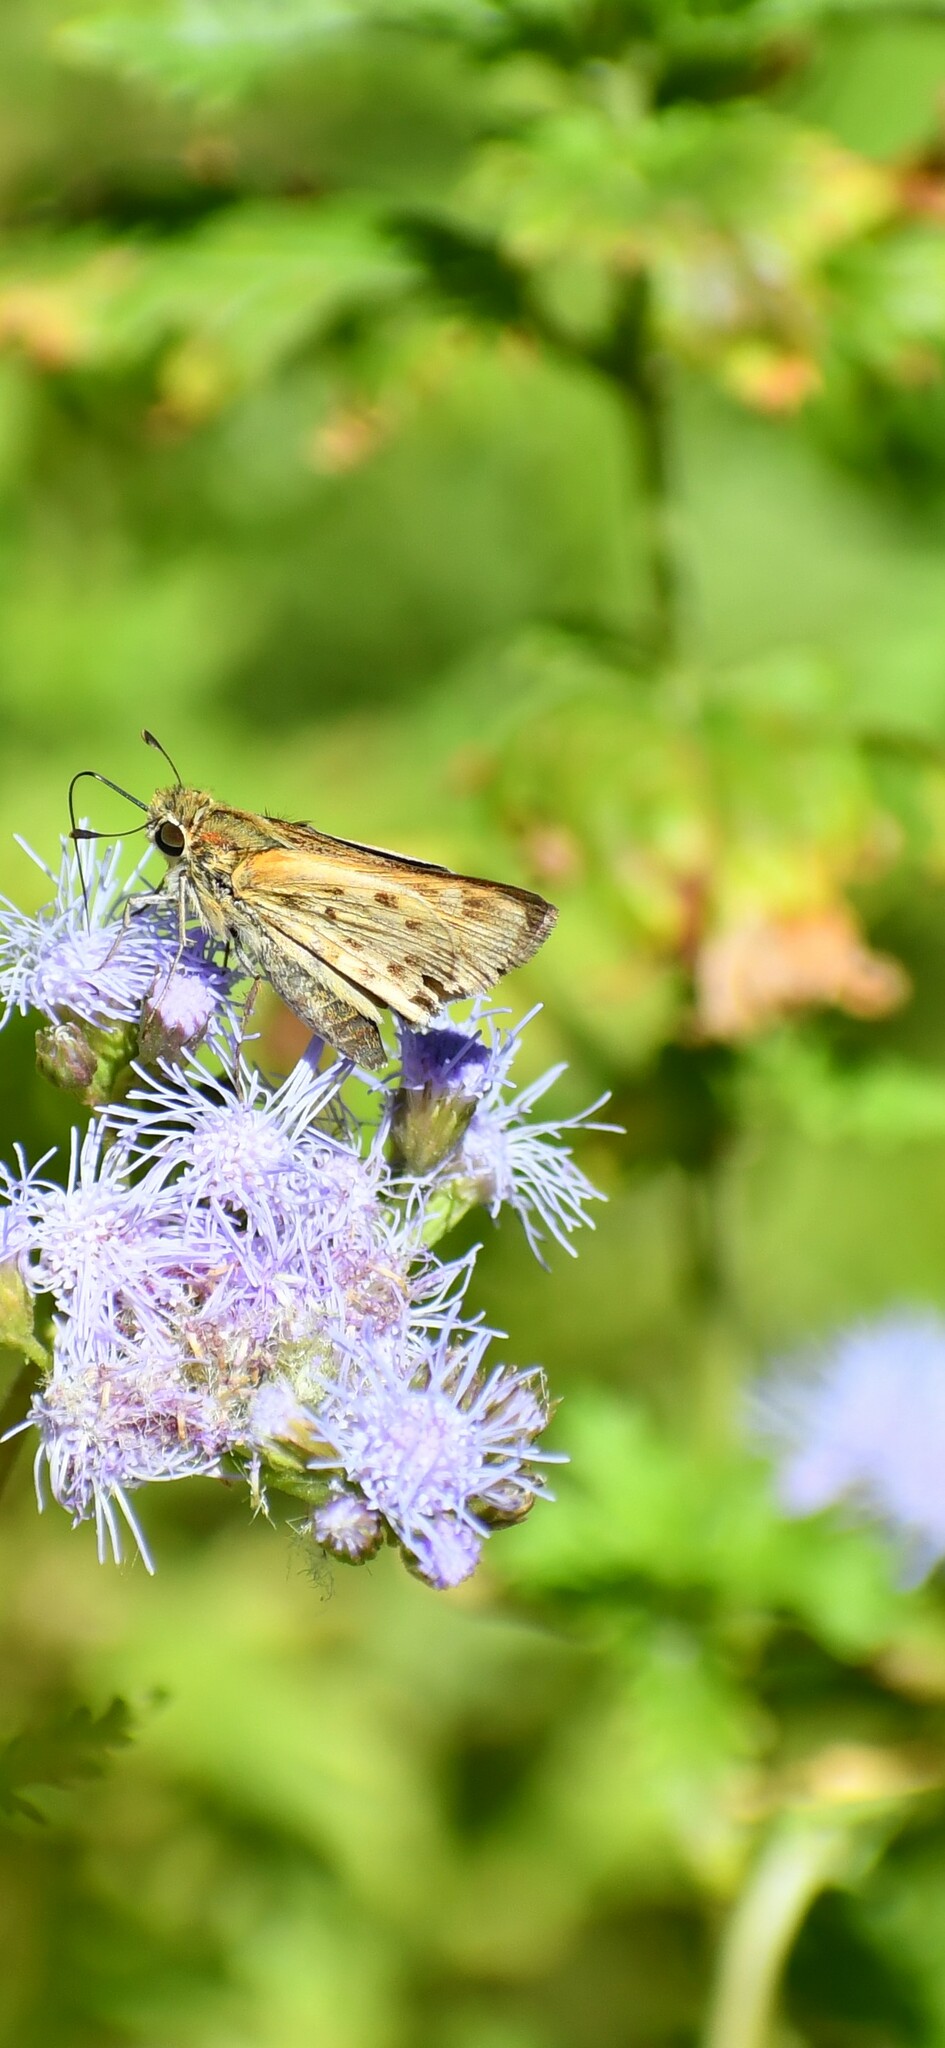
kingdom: Animalia
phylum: Arthropoda
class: Insecta
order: Lepidoptera
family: Hesperiidae
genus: Hylephila
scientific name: Hylephila phyleus
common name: Fiery skipper
